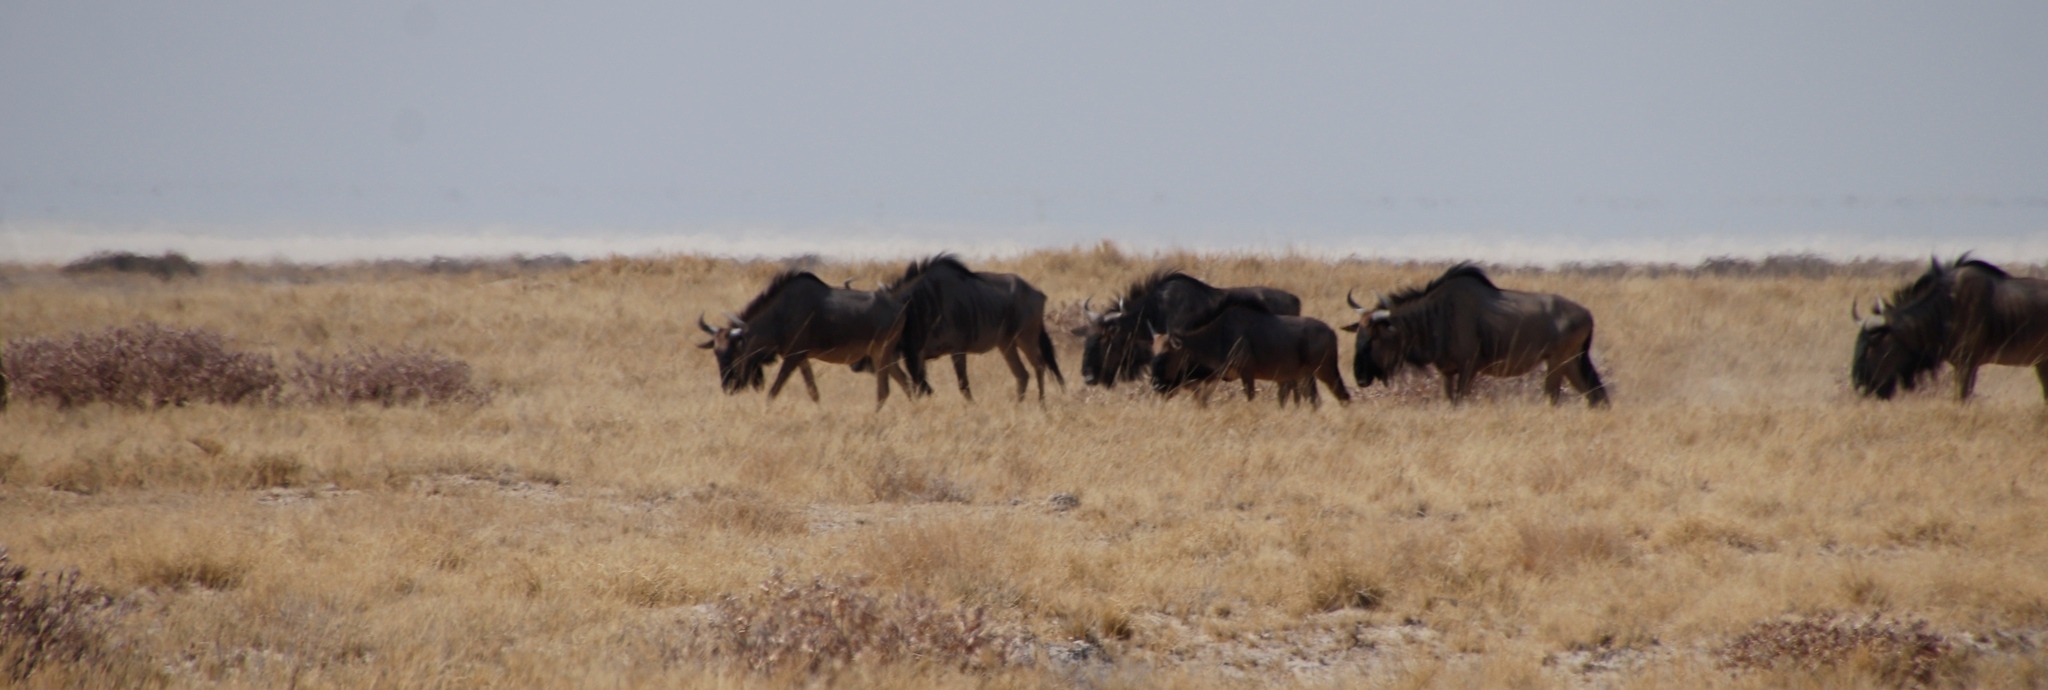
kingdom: Animalia
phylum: Chordata
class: Mammalia
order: Artiodactyla
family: Bovidae
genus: Connochaetes
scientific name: Connochaetes taurinus
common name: Blue wildebeest
